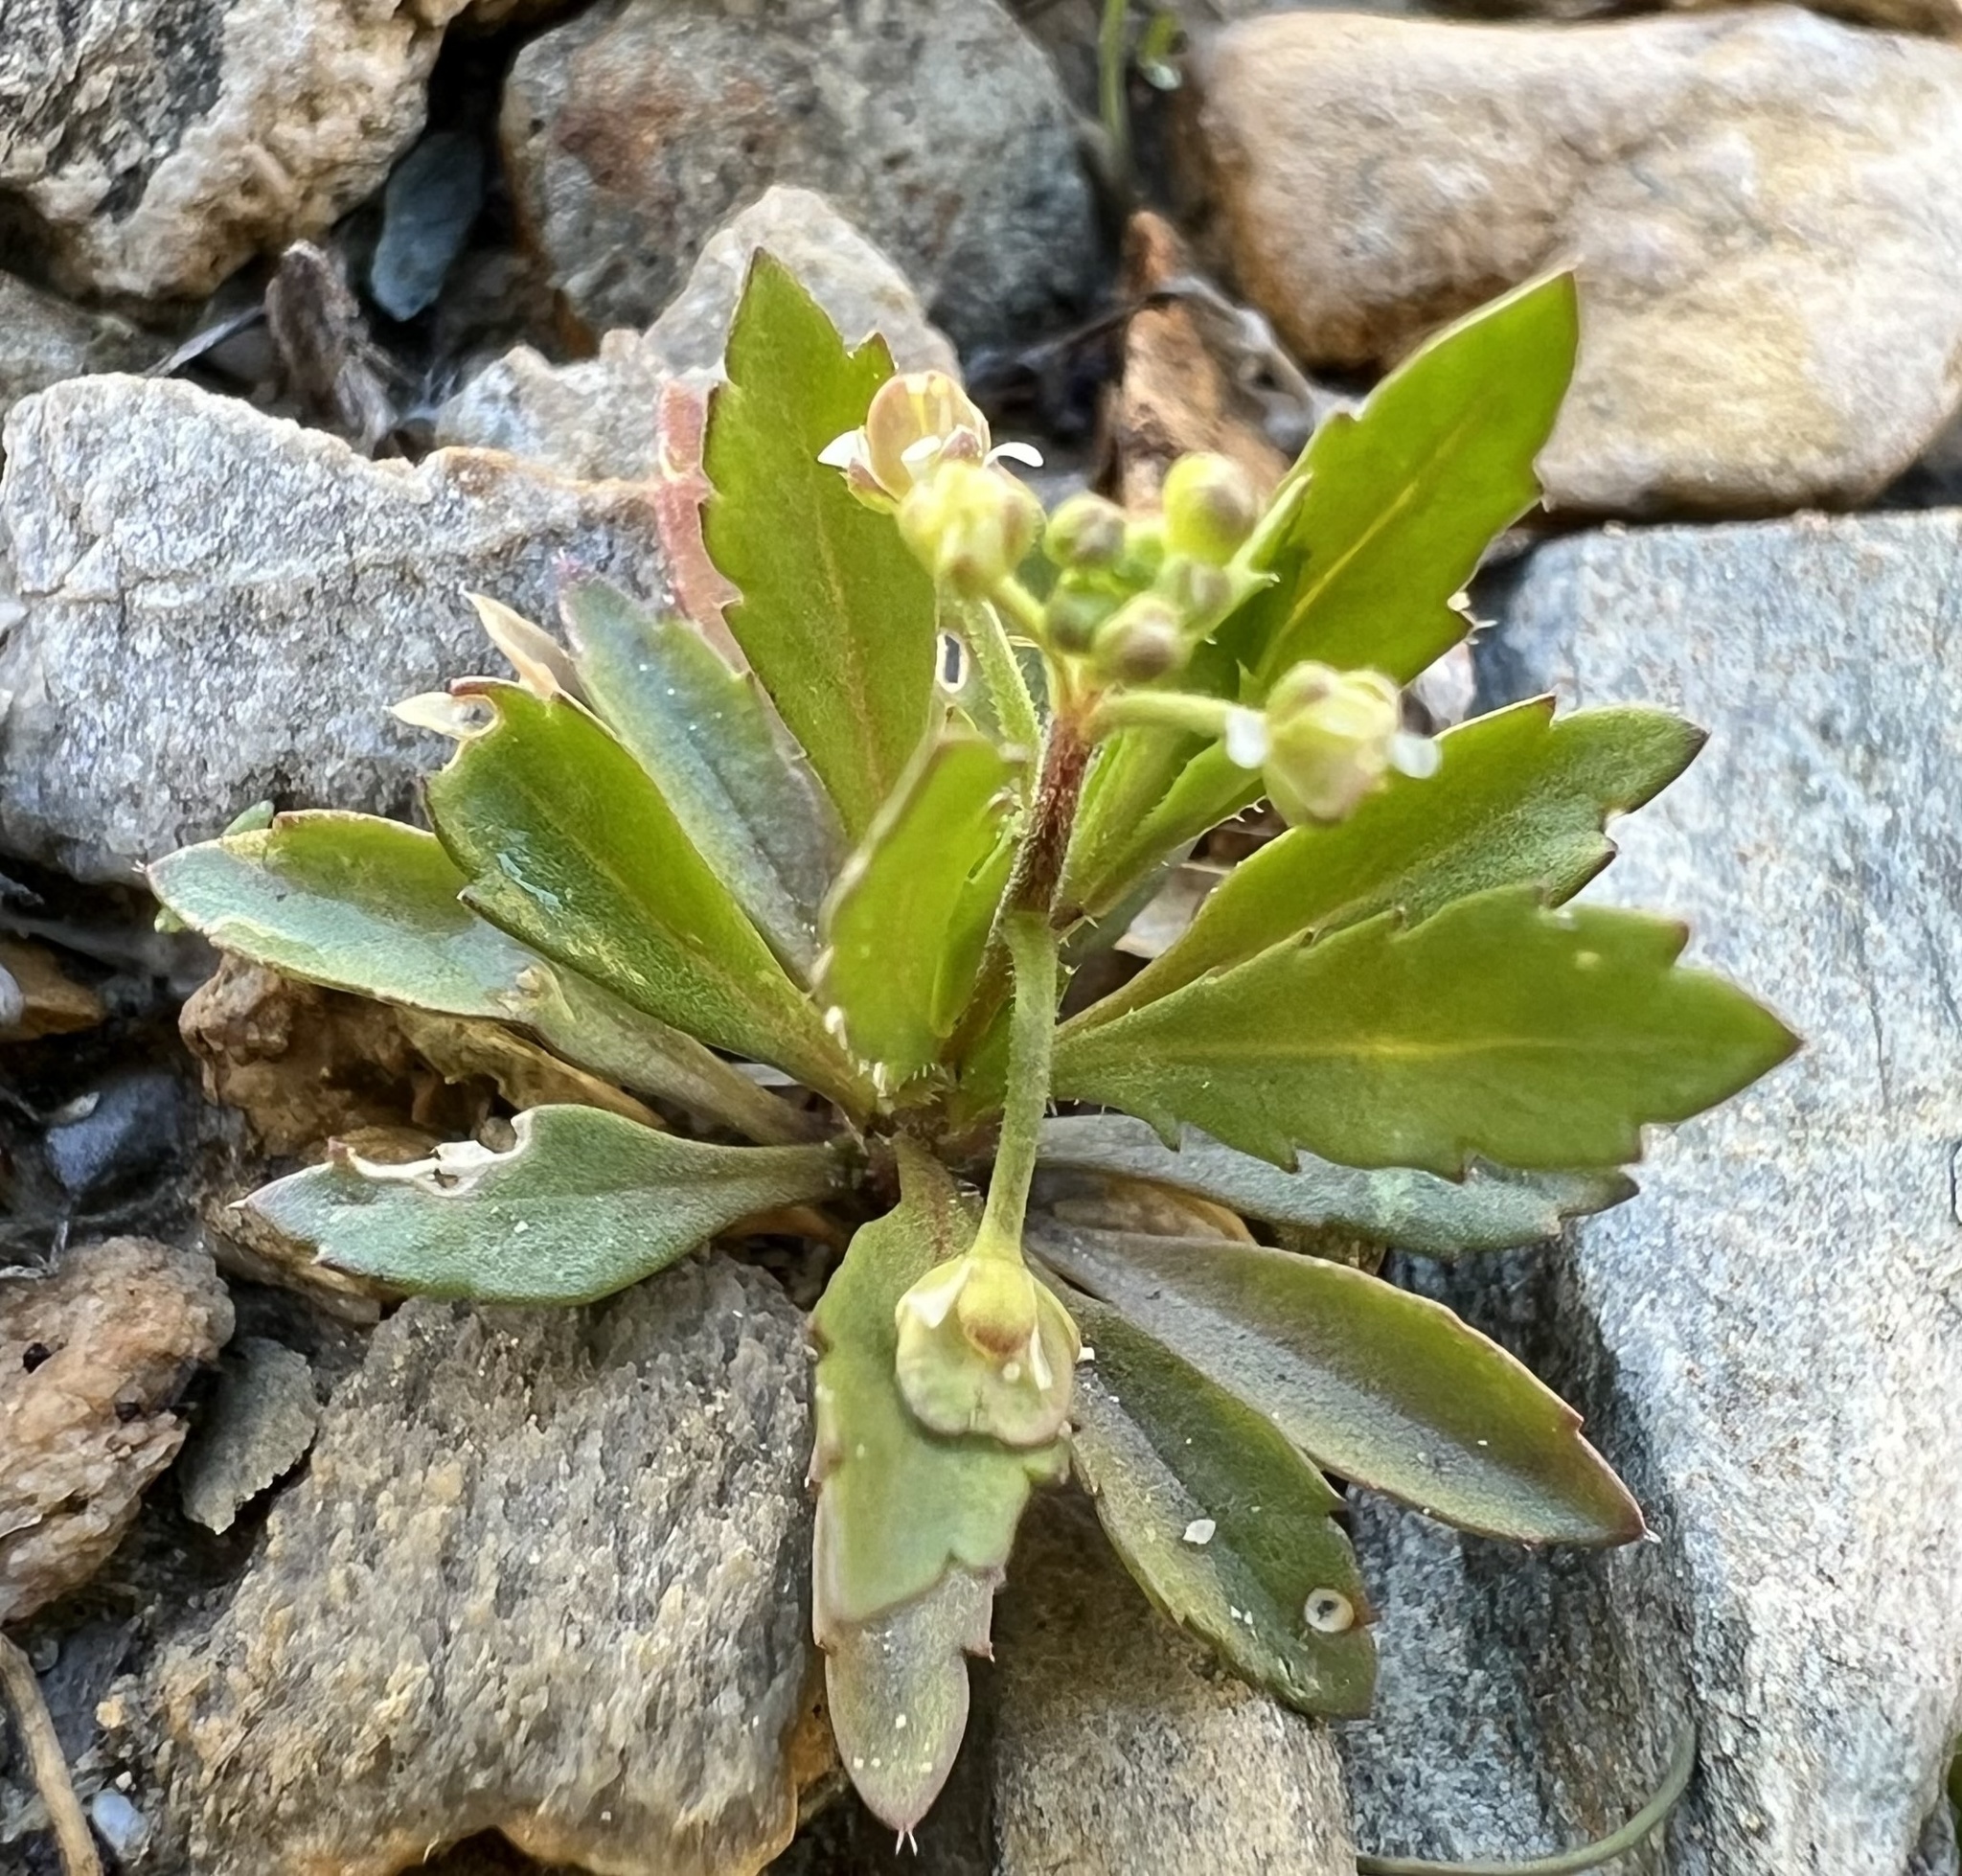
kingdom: Plantae
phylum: Tracheophyta
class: Magnoliopsida
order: Brassicales
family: Brassicaceae
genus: Lepidium
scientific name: Lepidium lasiocarpum
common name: Hairy-pod pepperwort
